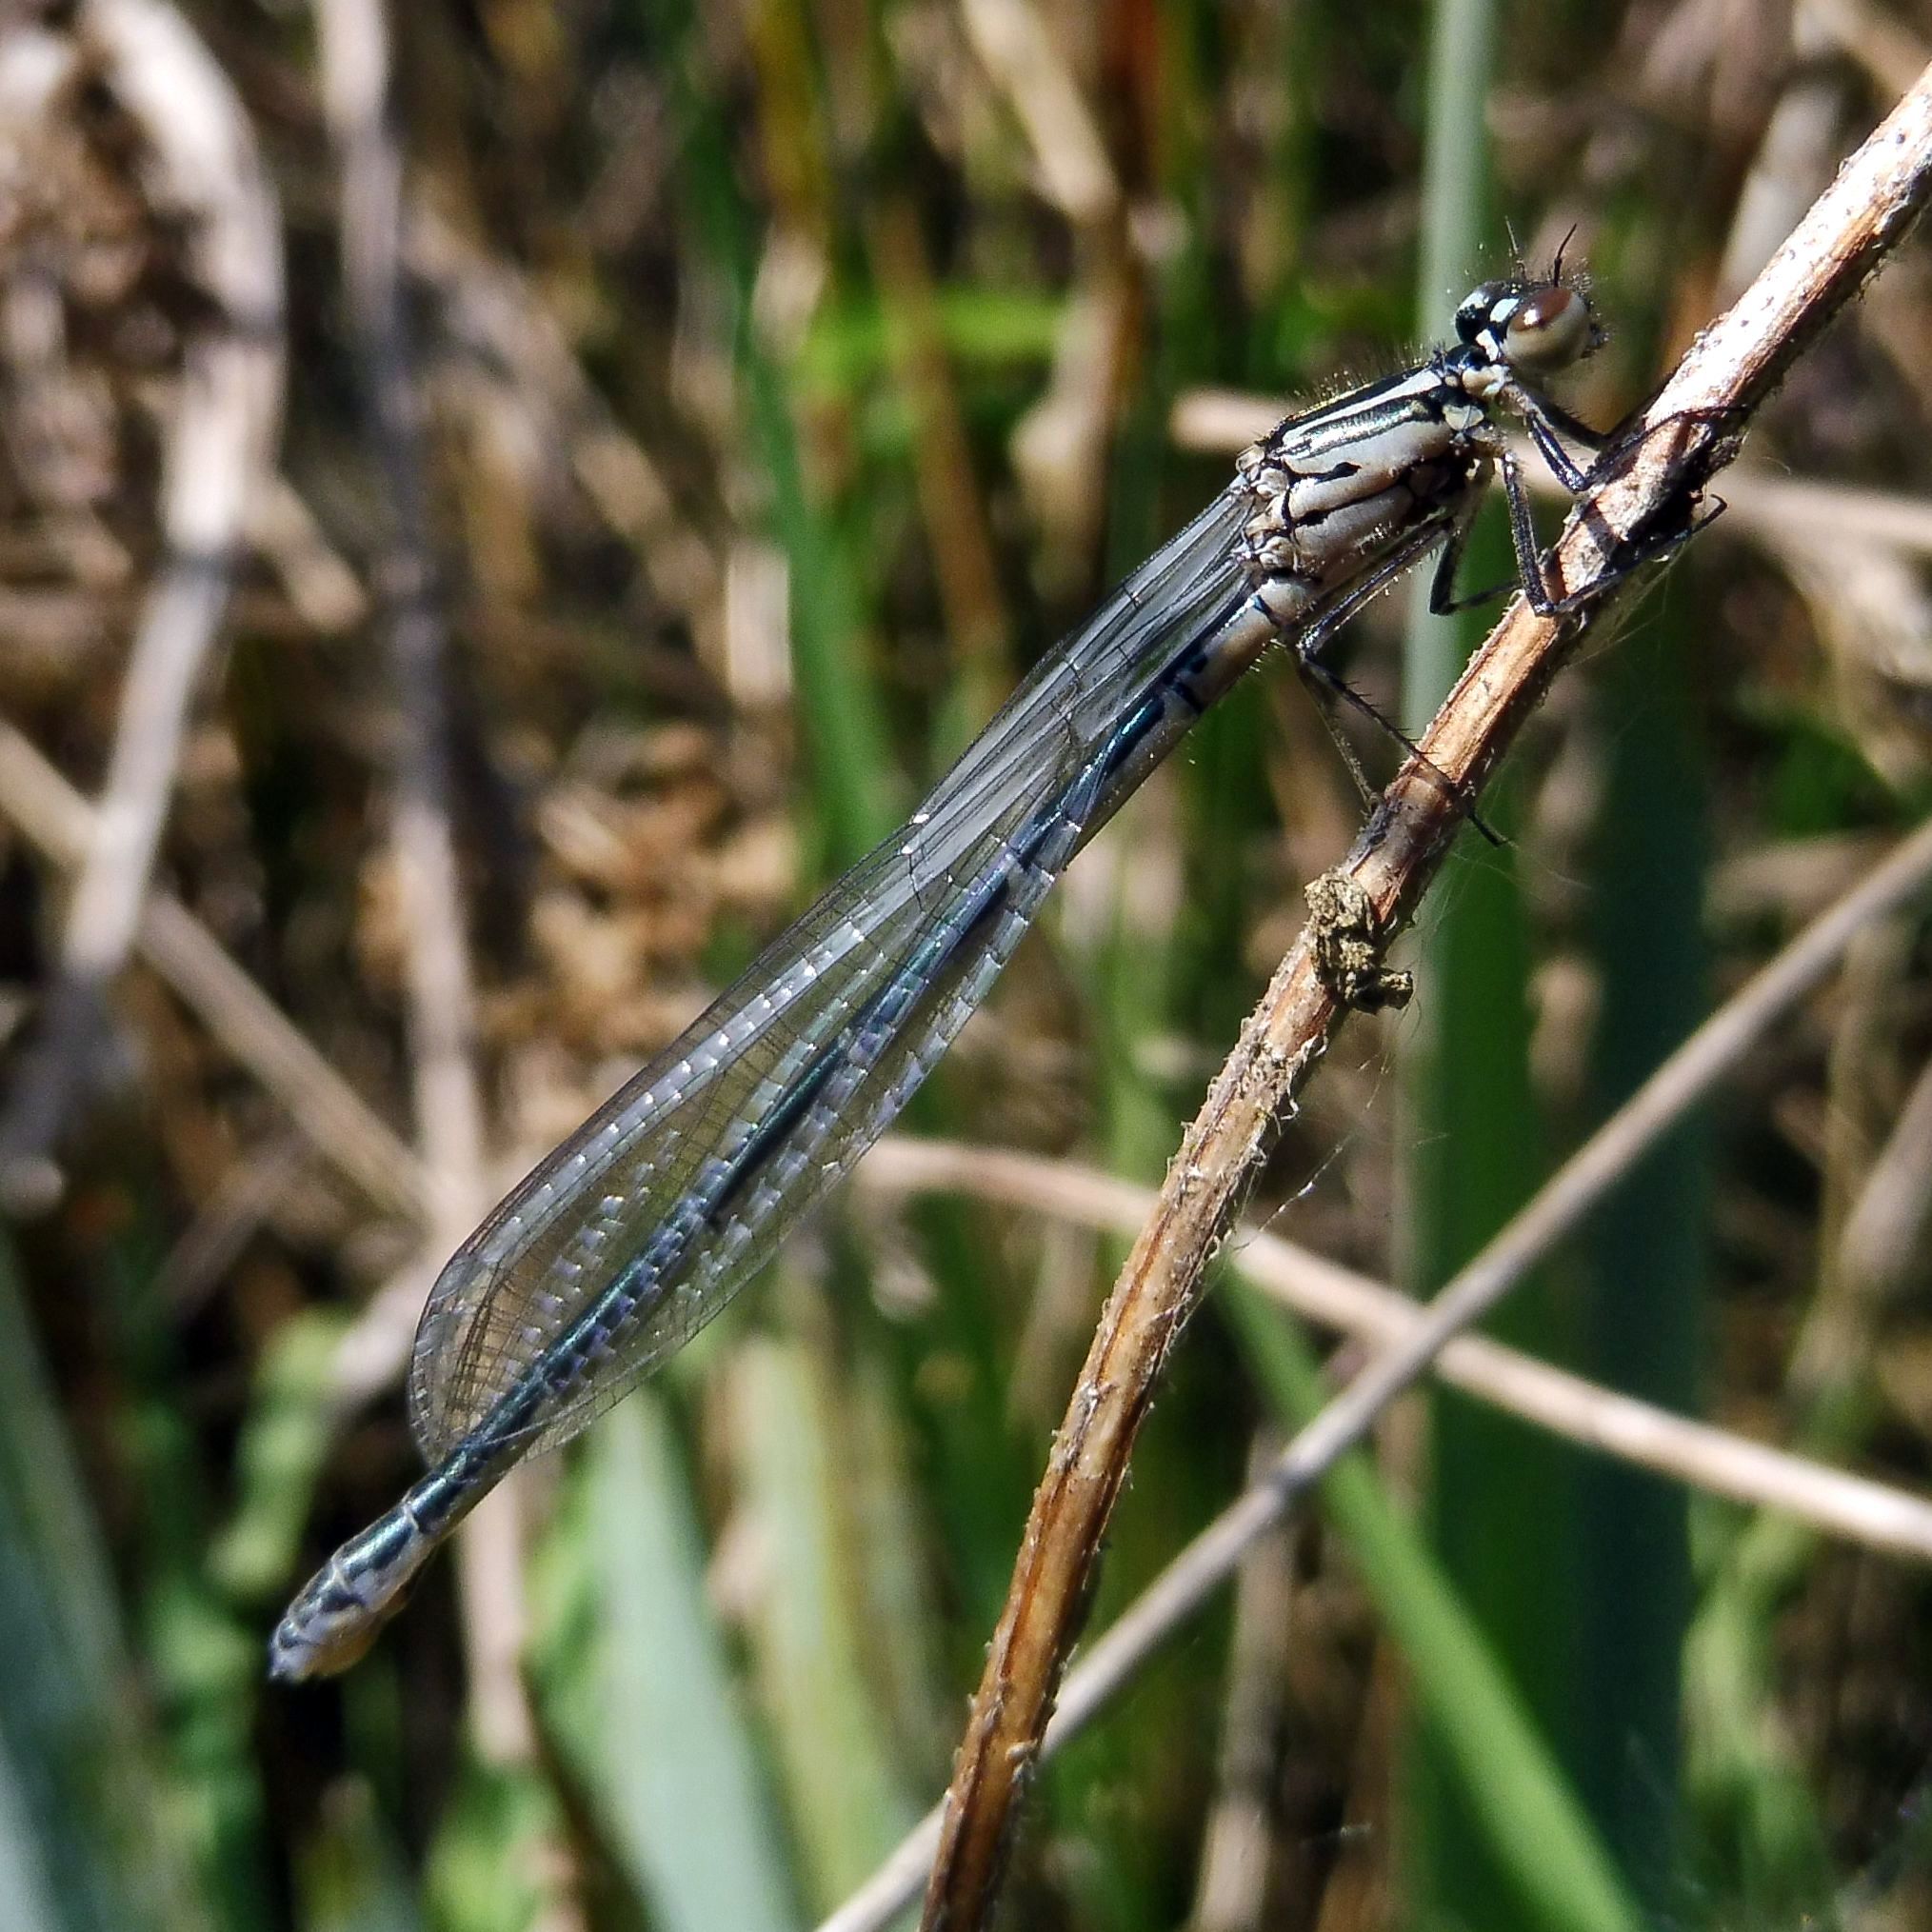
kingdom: Animalia
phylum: Arthropoda
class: Insecta
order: Odonata
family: Coenagrionidae
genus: Coenagrion
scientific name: Coenagrion puella
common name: Azure damselfly
